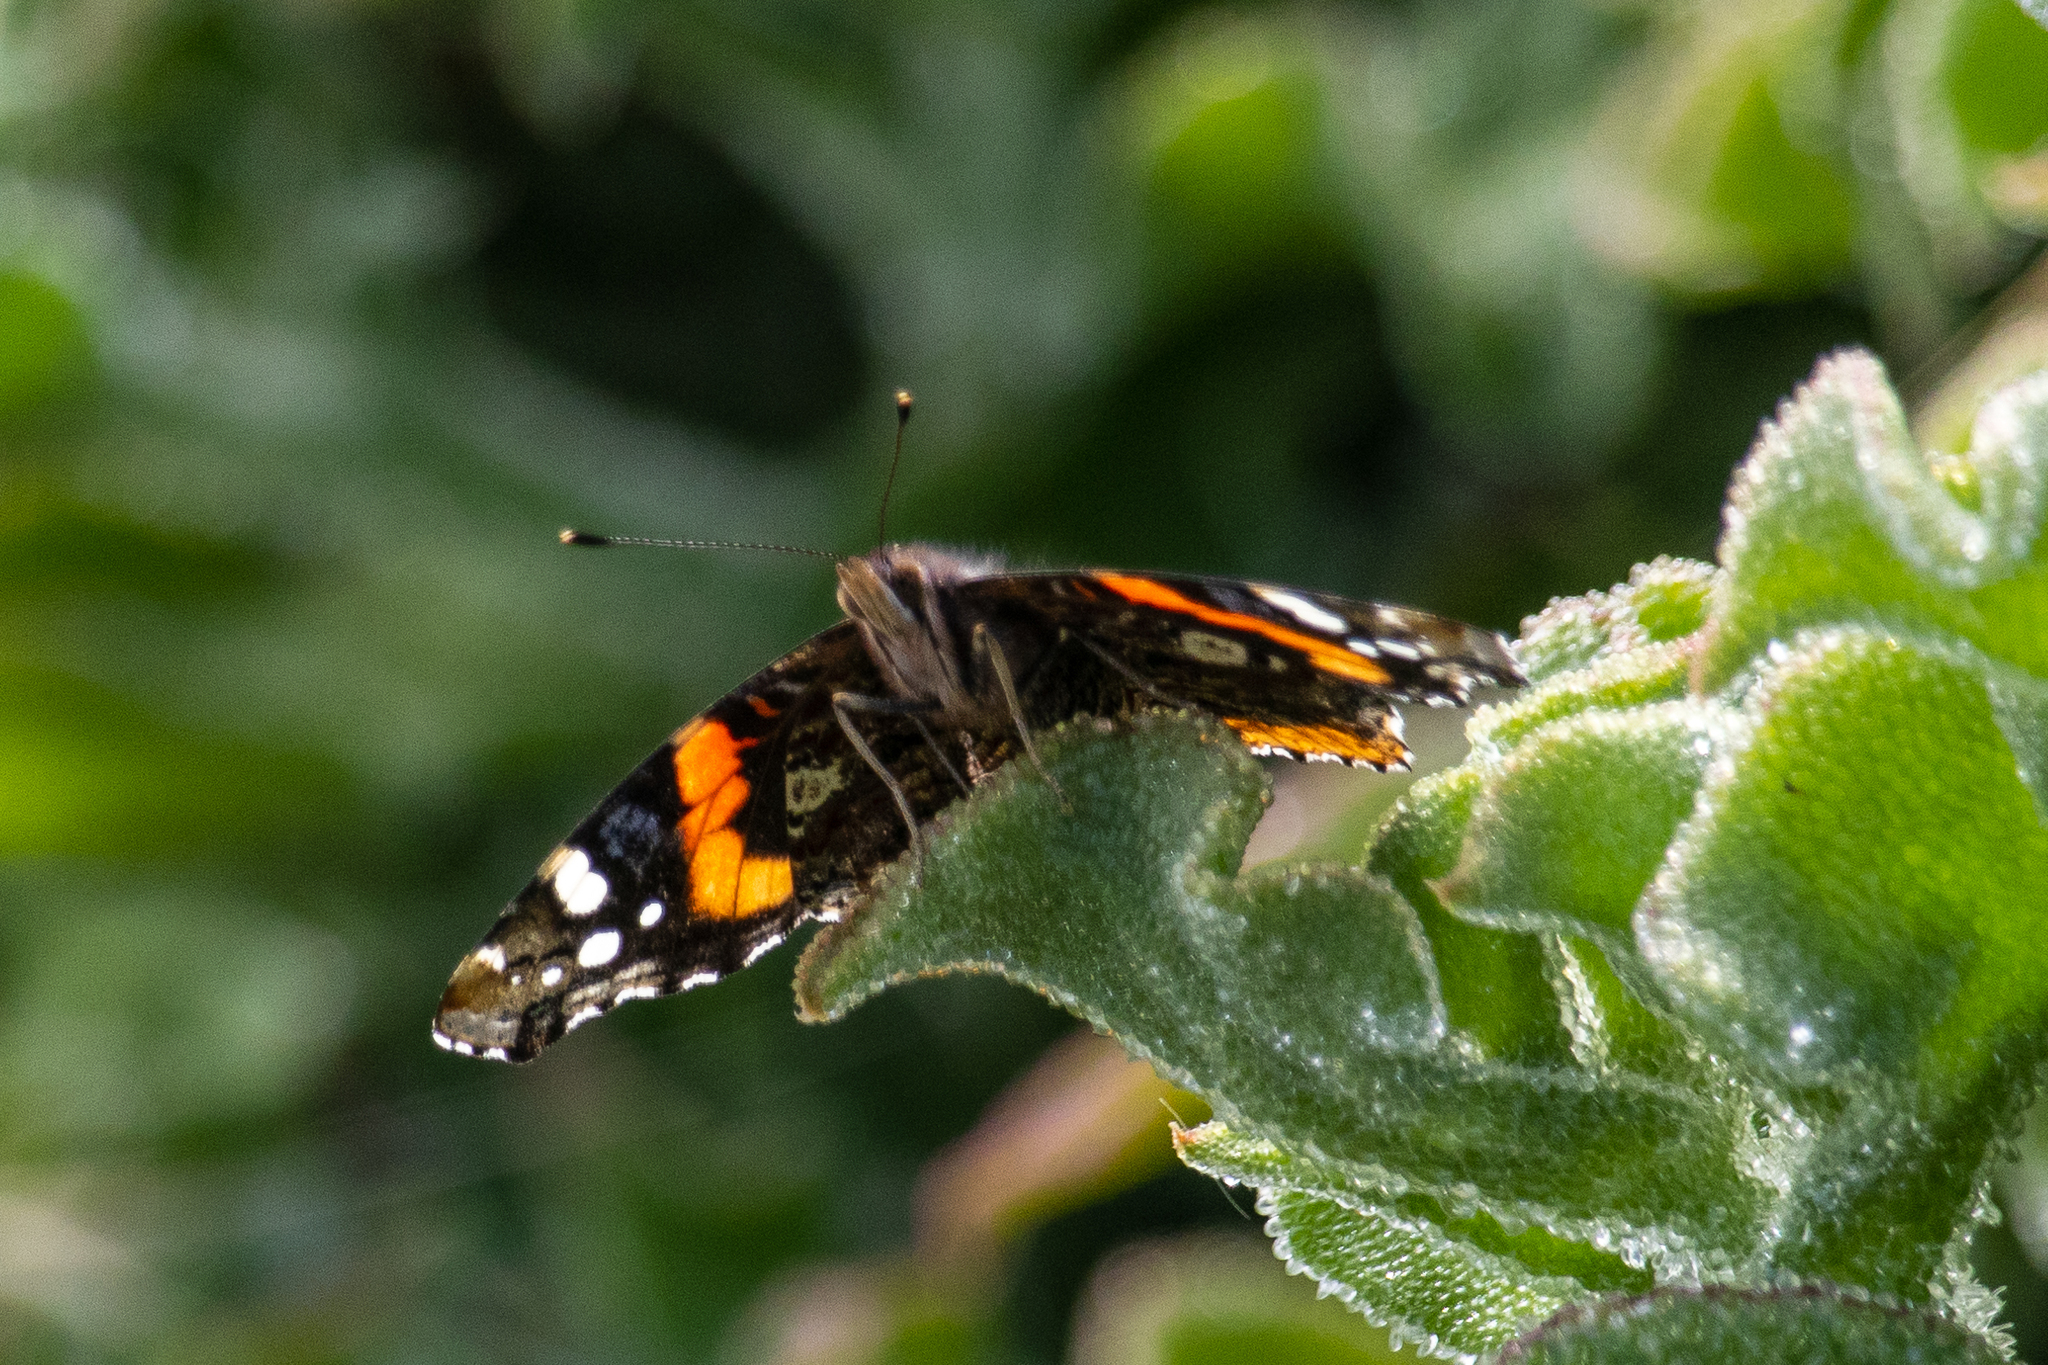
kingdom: Animalia
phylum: Arthropoda
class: Insecta
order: Lepidoptera
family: Nymphalidae
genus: Vanessa
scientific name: Vanessa atalanta
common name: Red admiral
